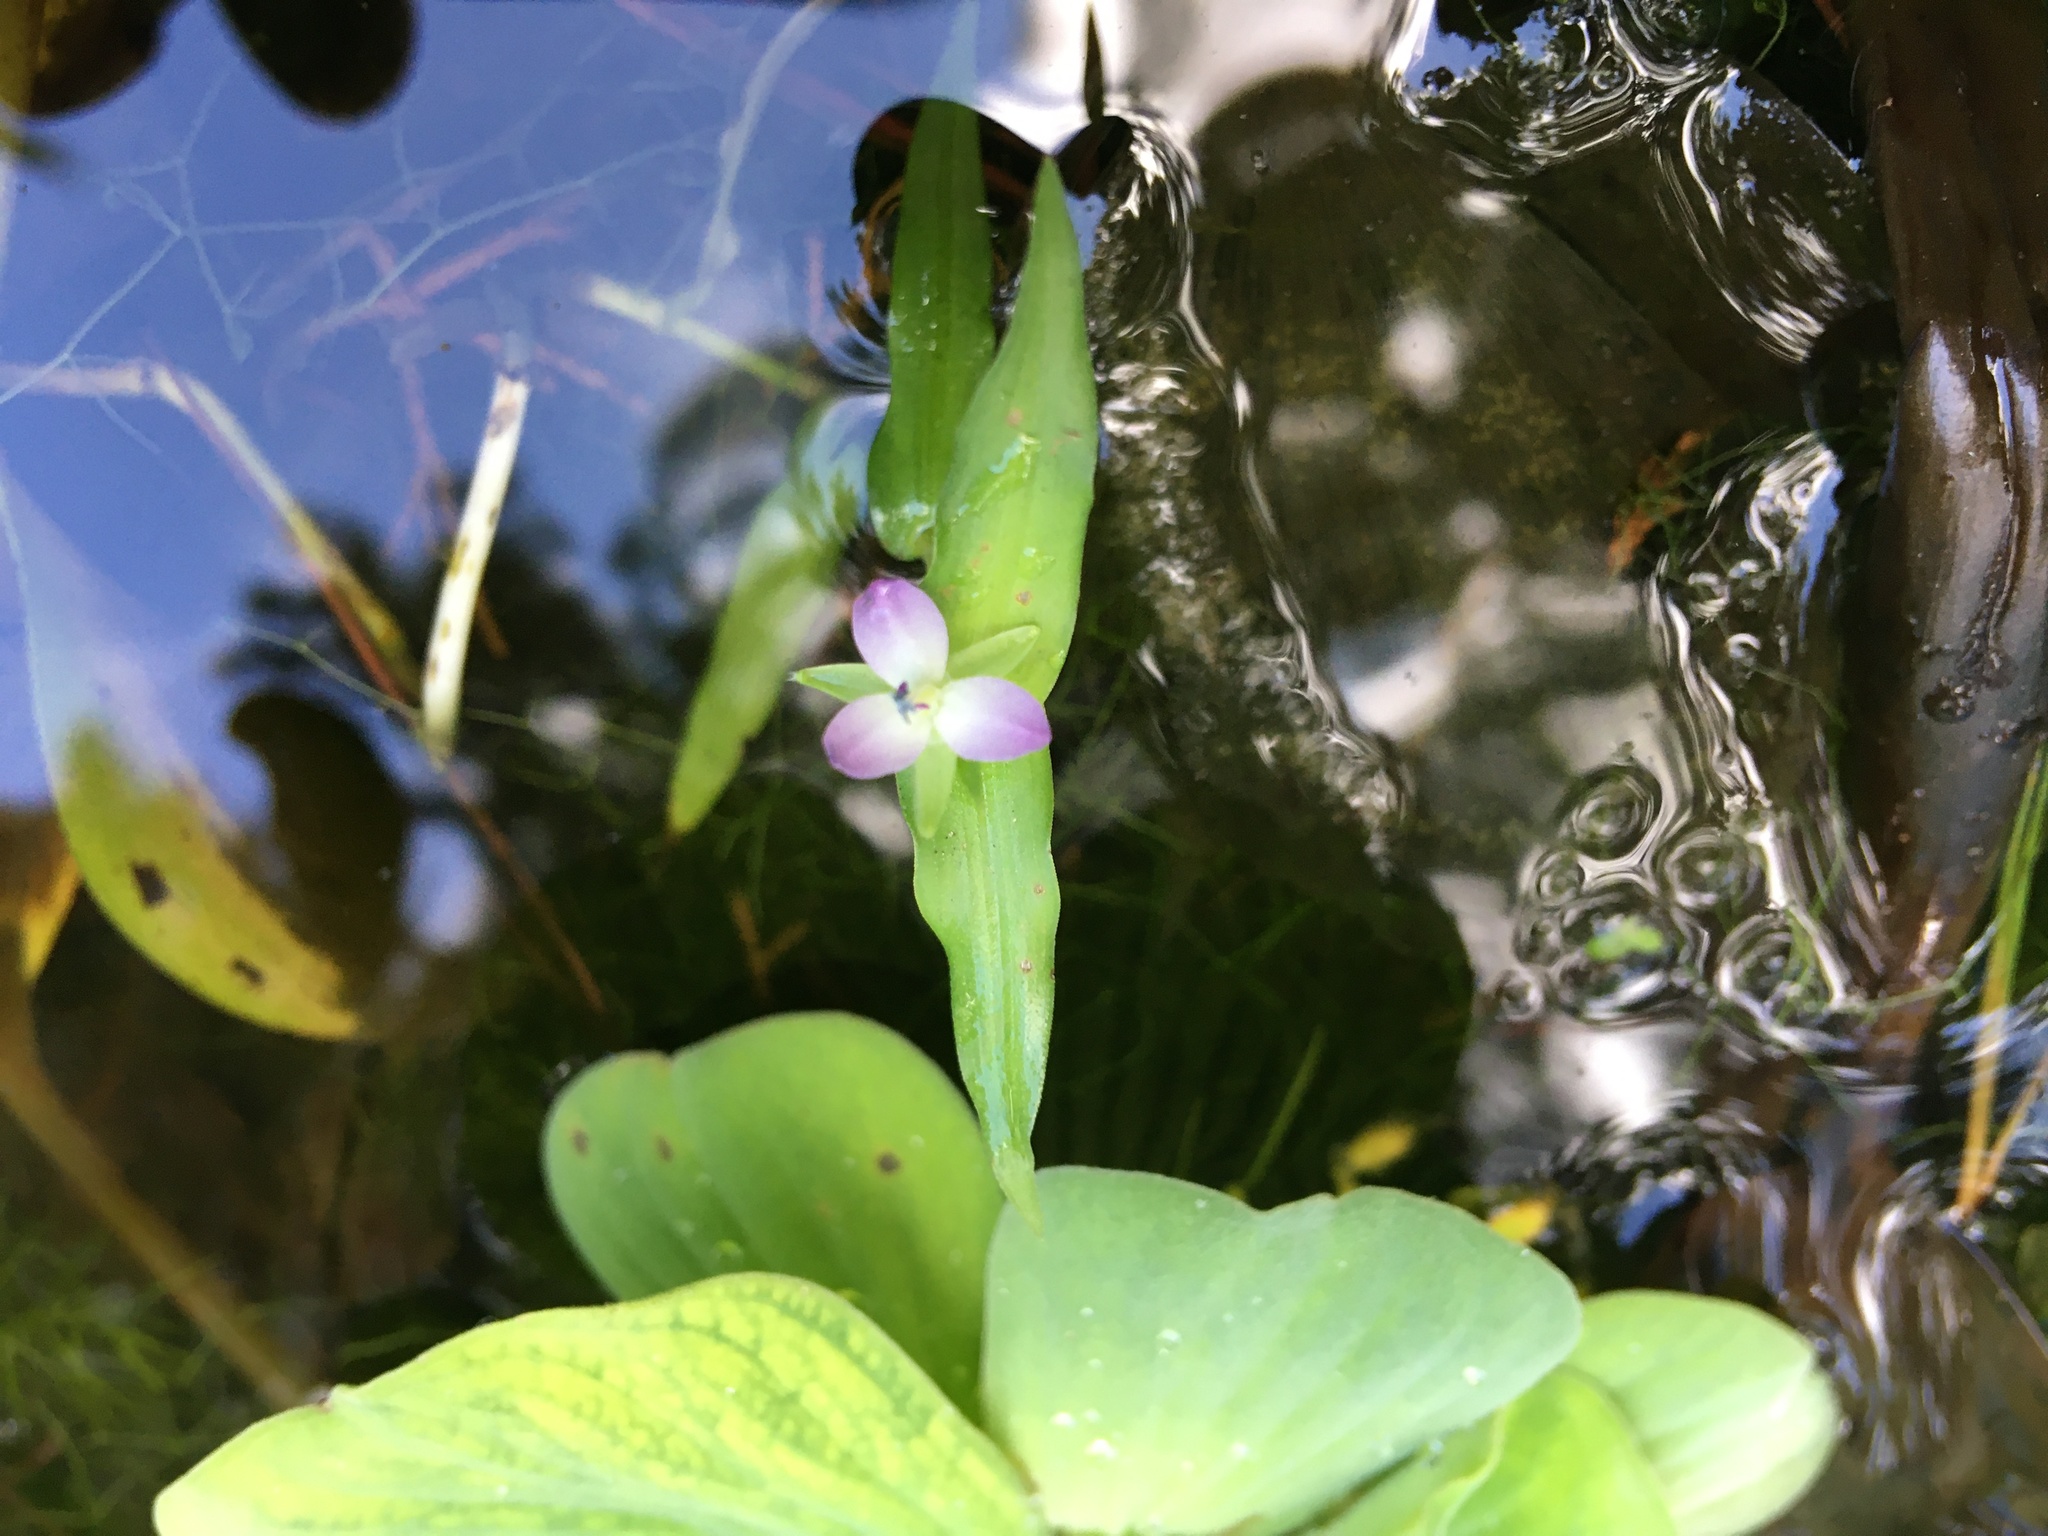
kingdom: Plantae
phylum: Tracheophyta
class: Liliopsida
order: Commelinales
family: Commelinaceae
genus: Murdannia
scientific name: Murdannia keisak
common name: Wartremoving herb
